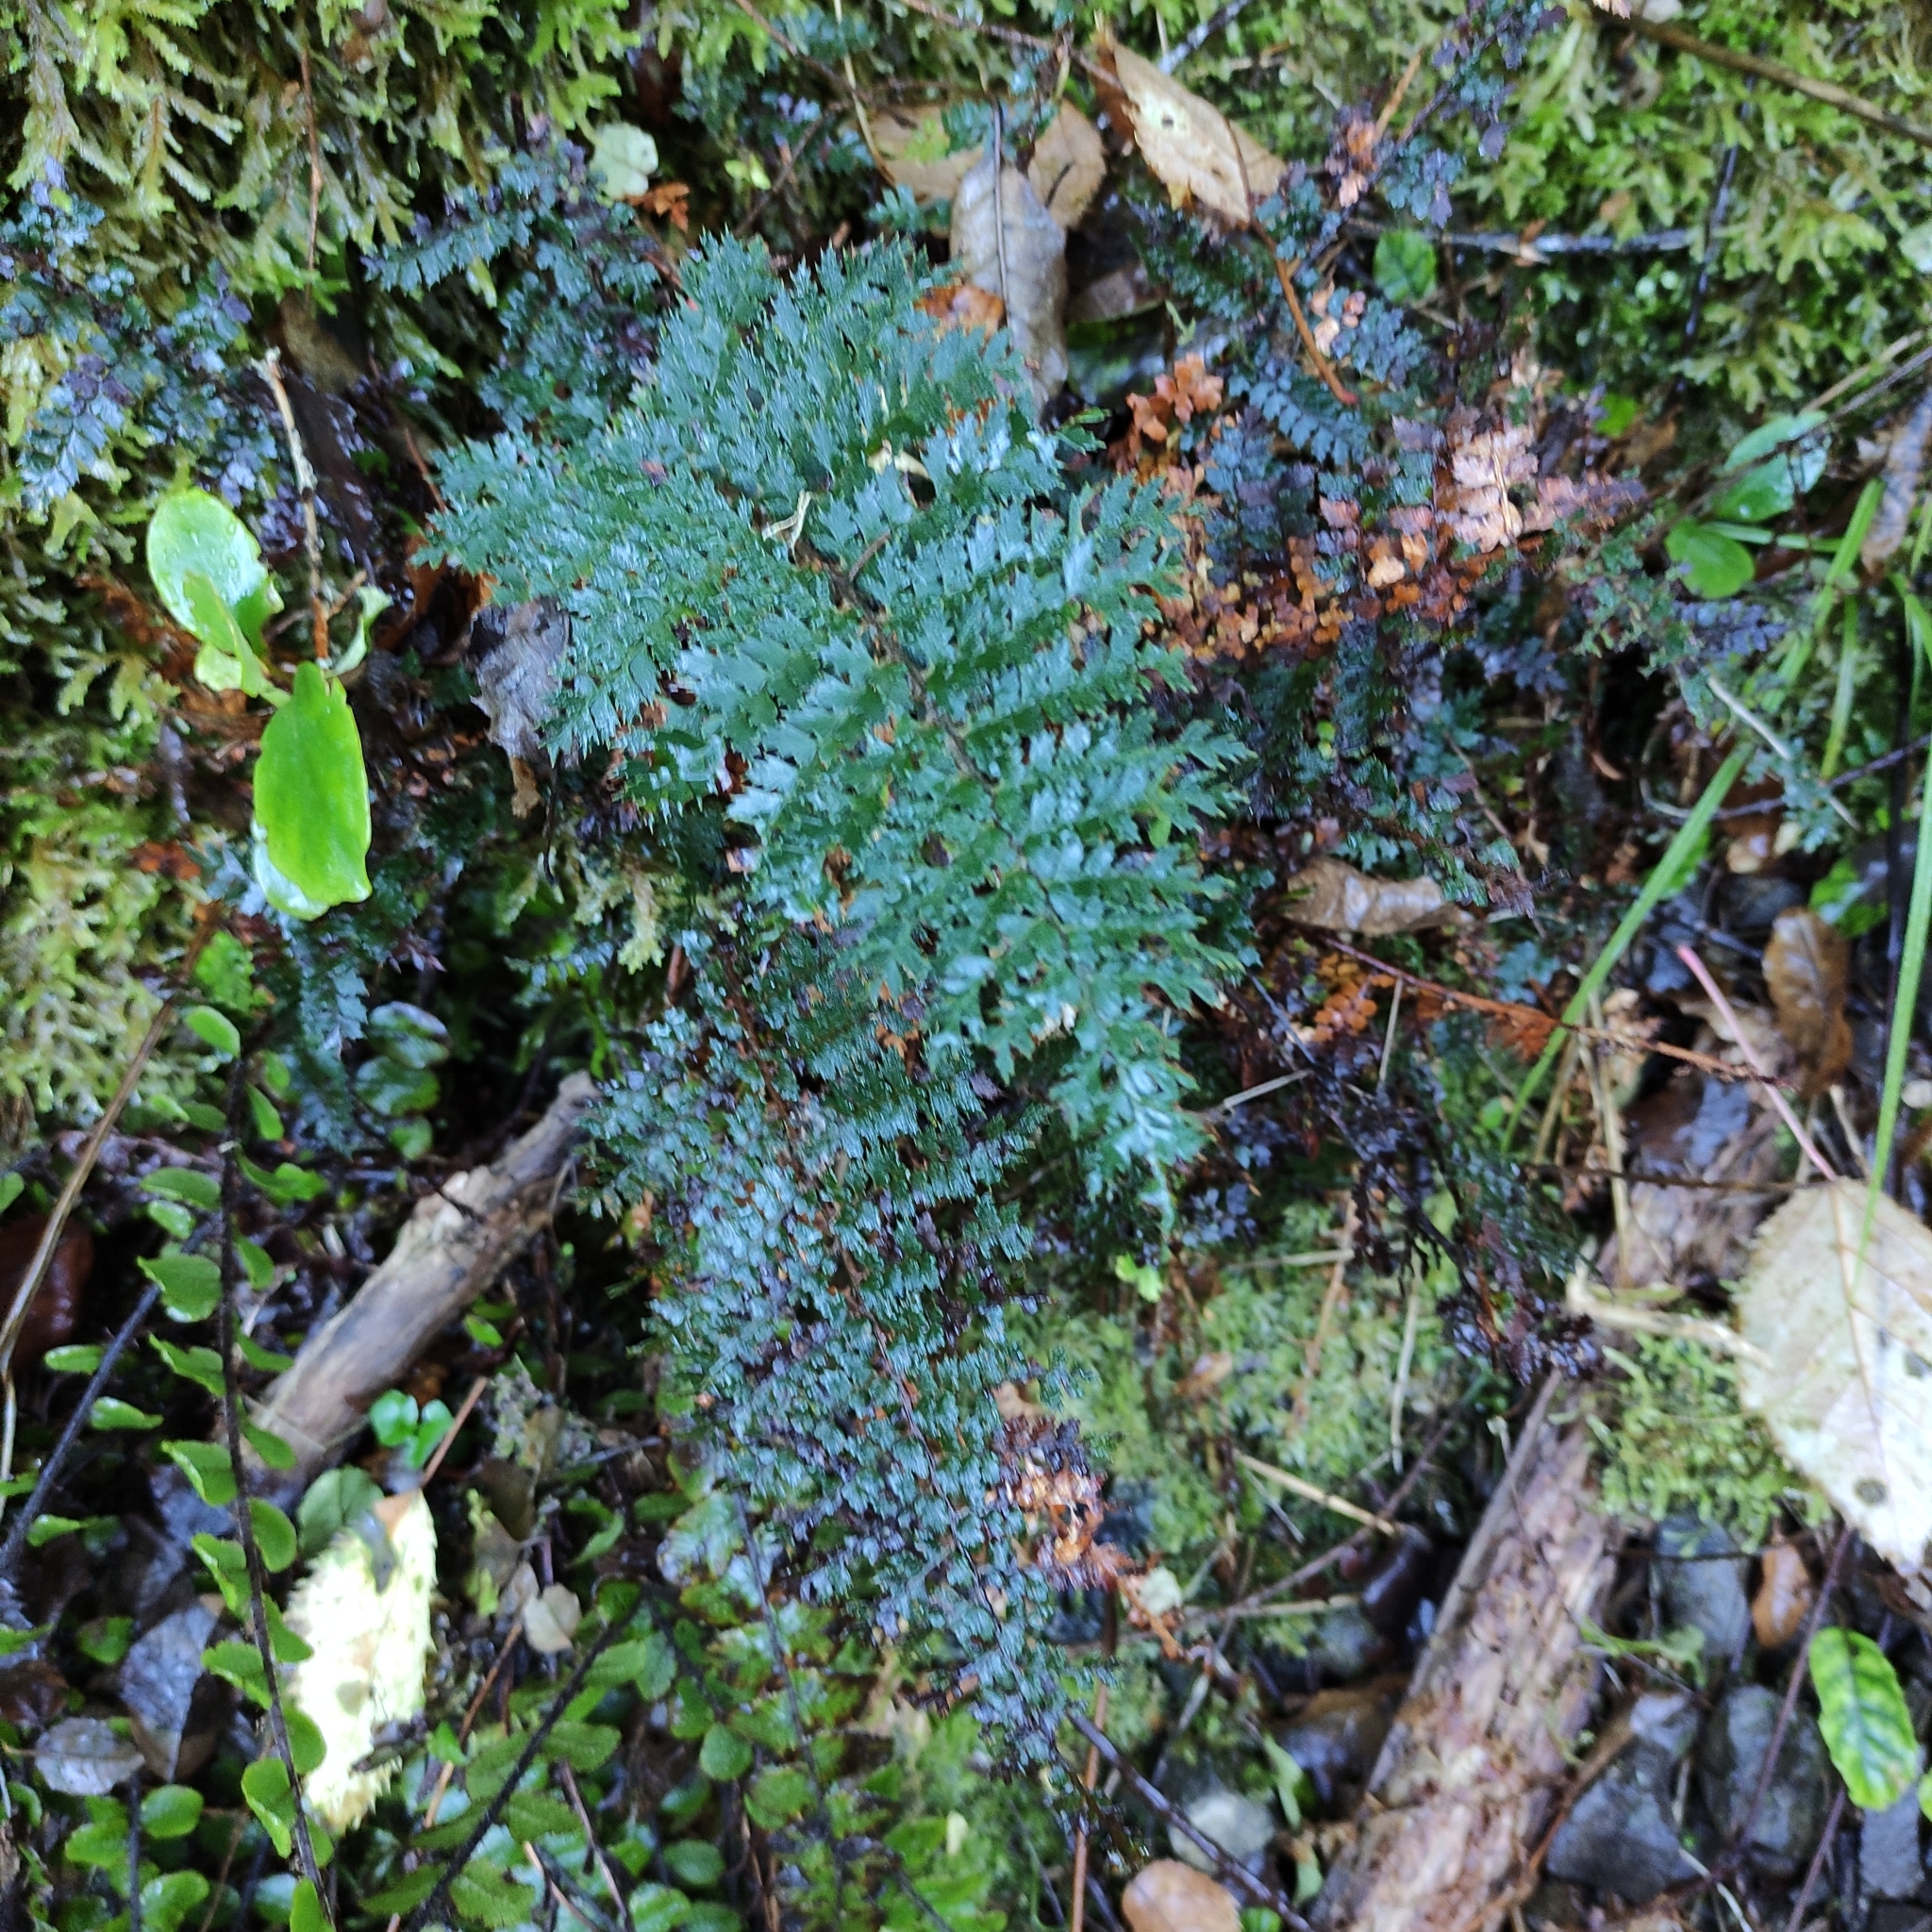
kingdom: Plantae
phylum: Tracheophyta
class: Polypodiopsida
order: Polypodiales
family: Dryopteridaceae
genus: Polystichum
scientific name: Polystichum vestitum
